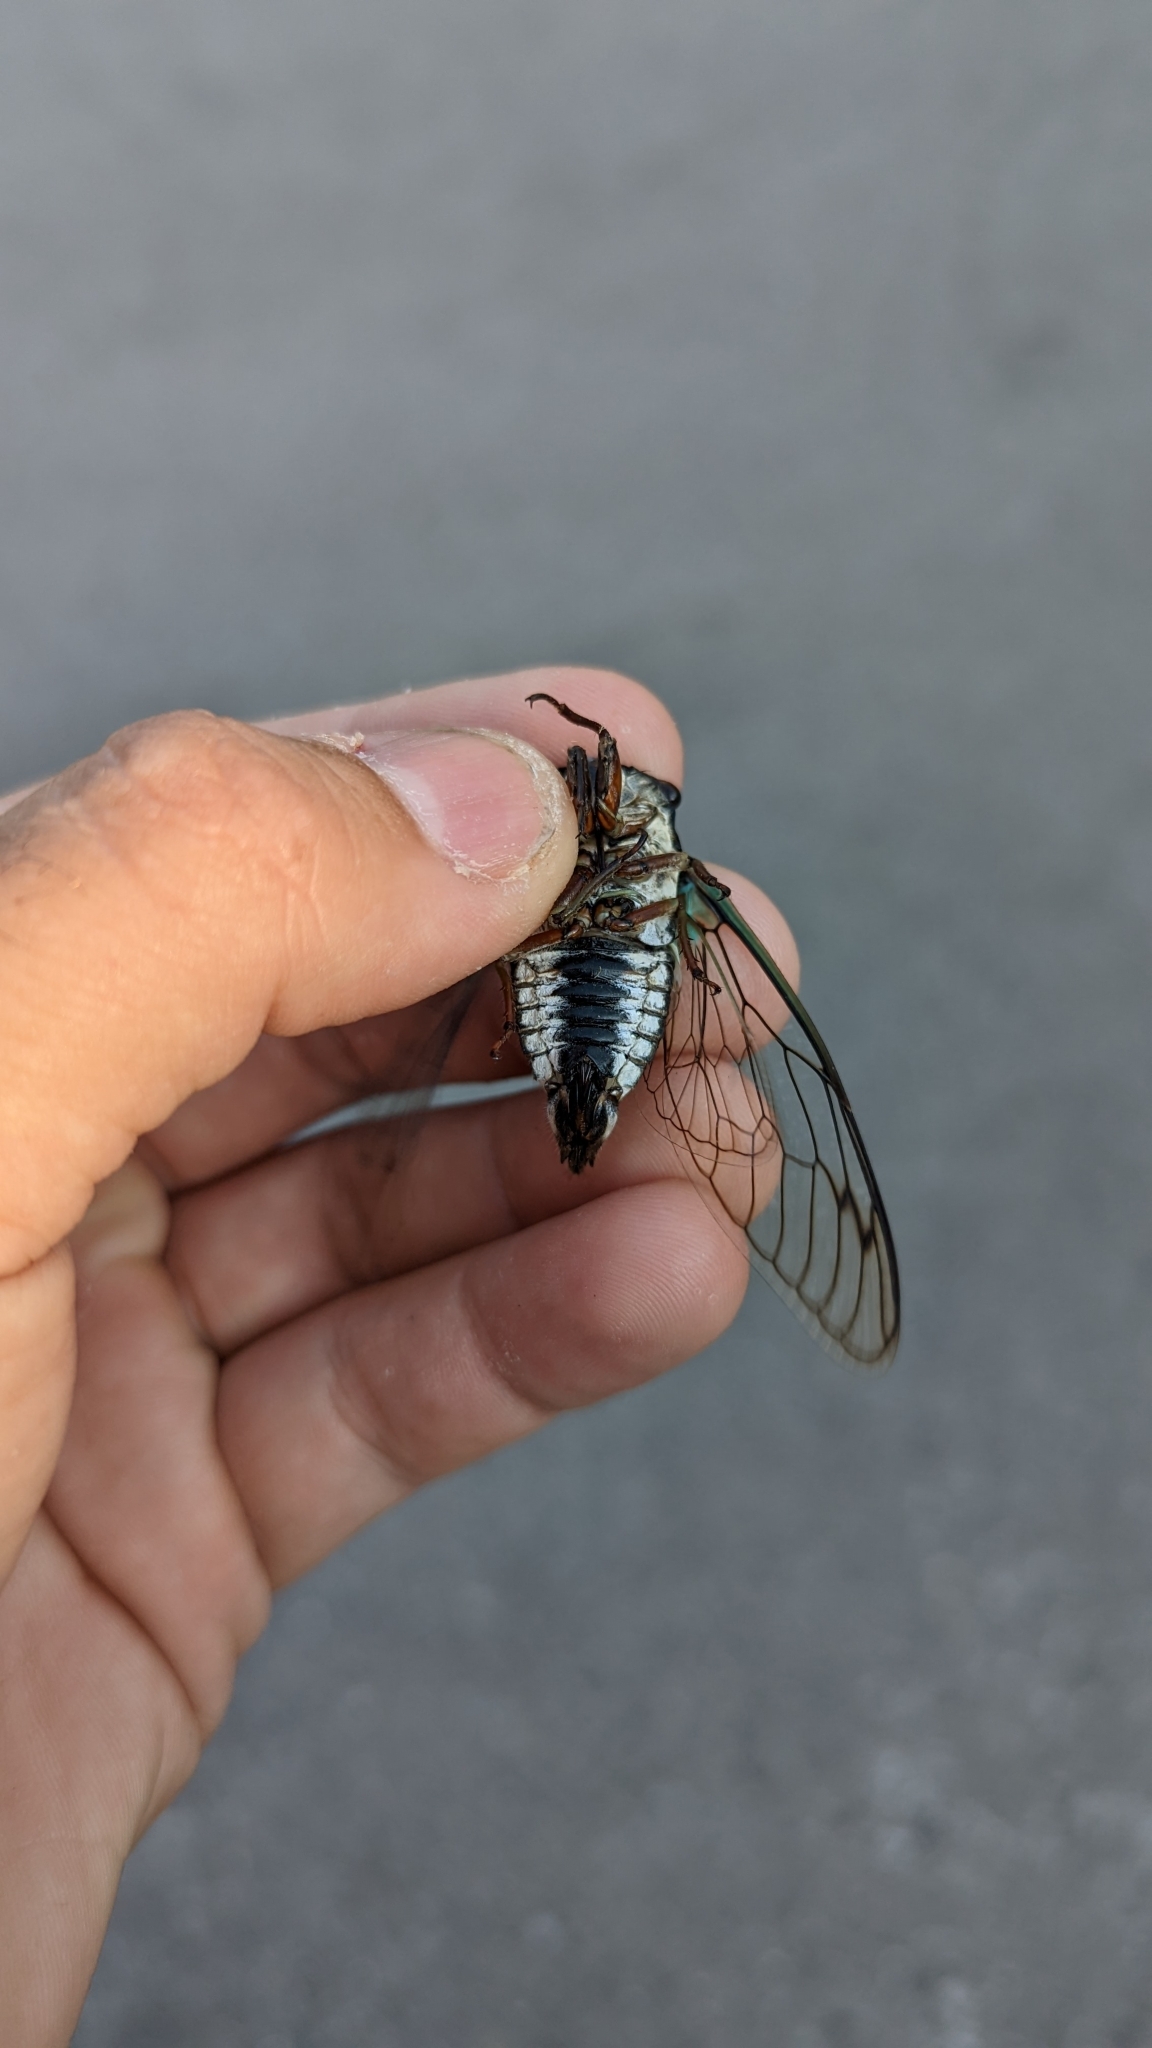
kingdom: Animalia
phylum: Arthropoda
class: Insecta
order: Hemiptera
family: Cicadidae
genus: Neotibicen
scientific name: Neotibicen lyricen
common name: Lyric cicada
